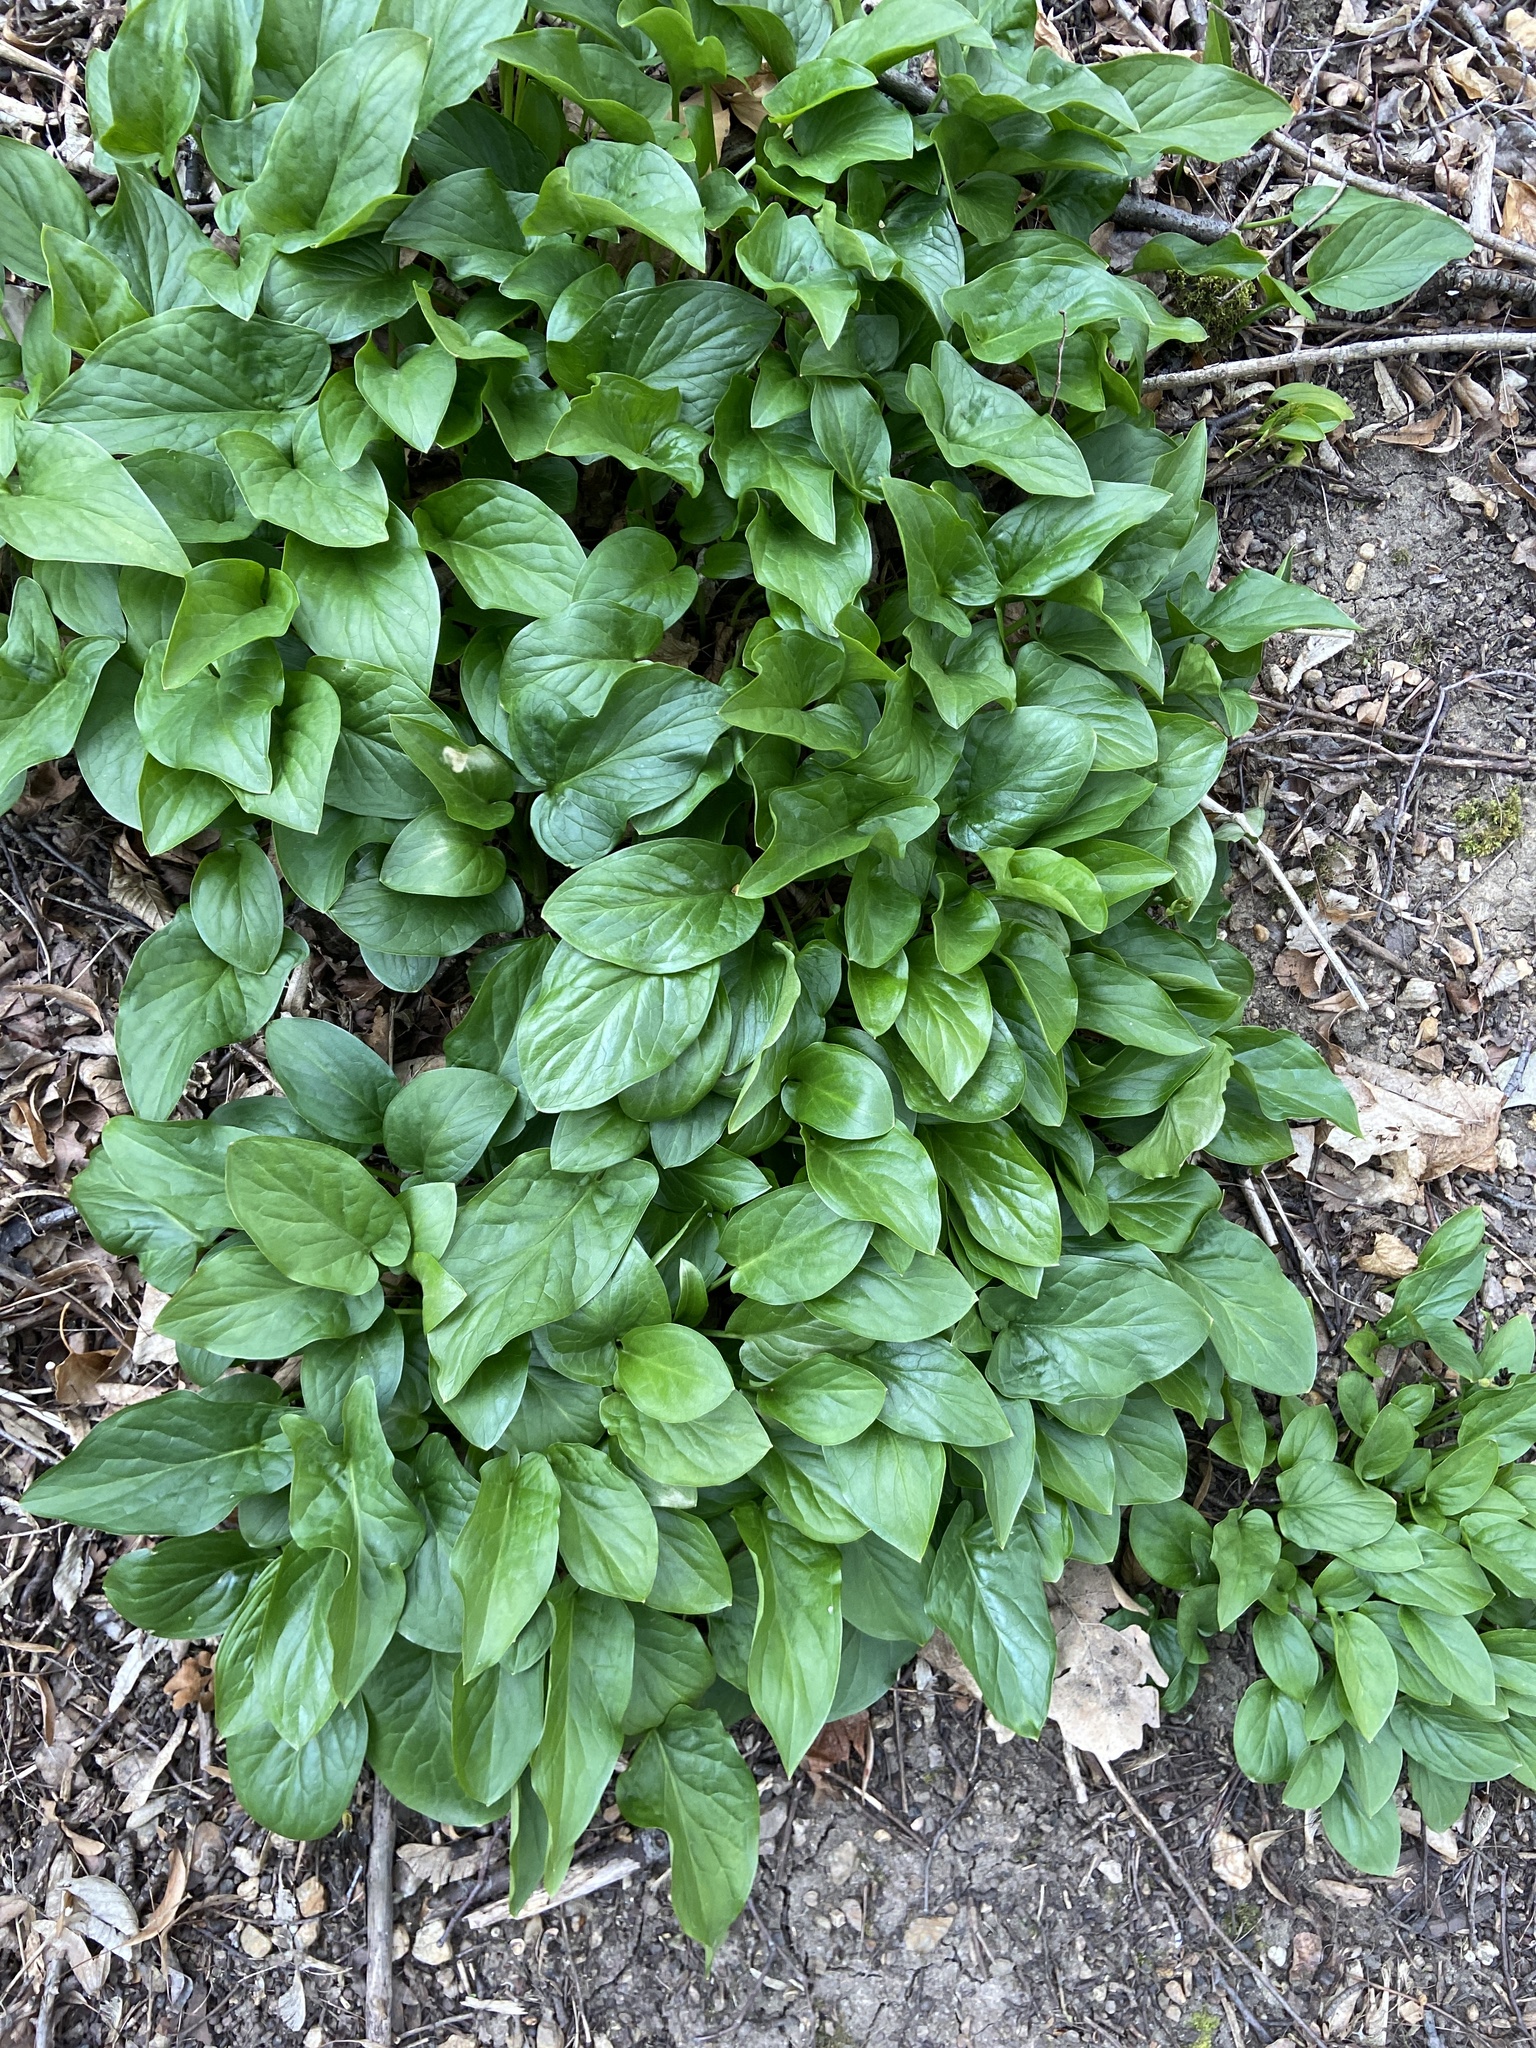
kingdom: Plantae
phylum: Tracheophyta
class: Liliopsida
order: Alismatales
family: Araceae
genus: Arum
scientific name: Arum maculatum
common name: Lords-and-ladies
